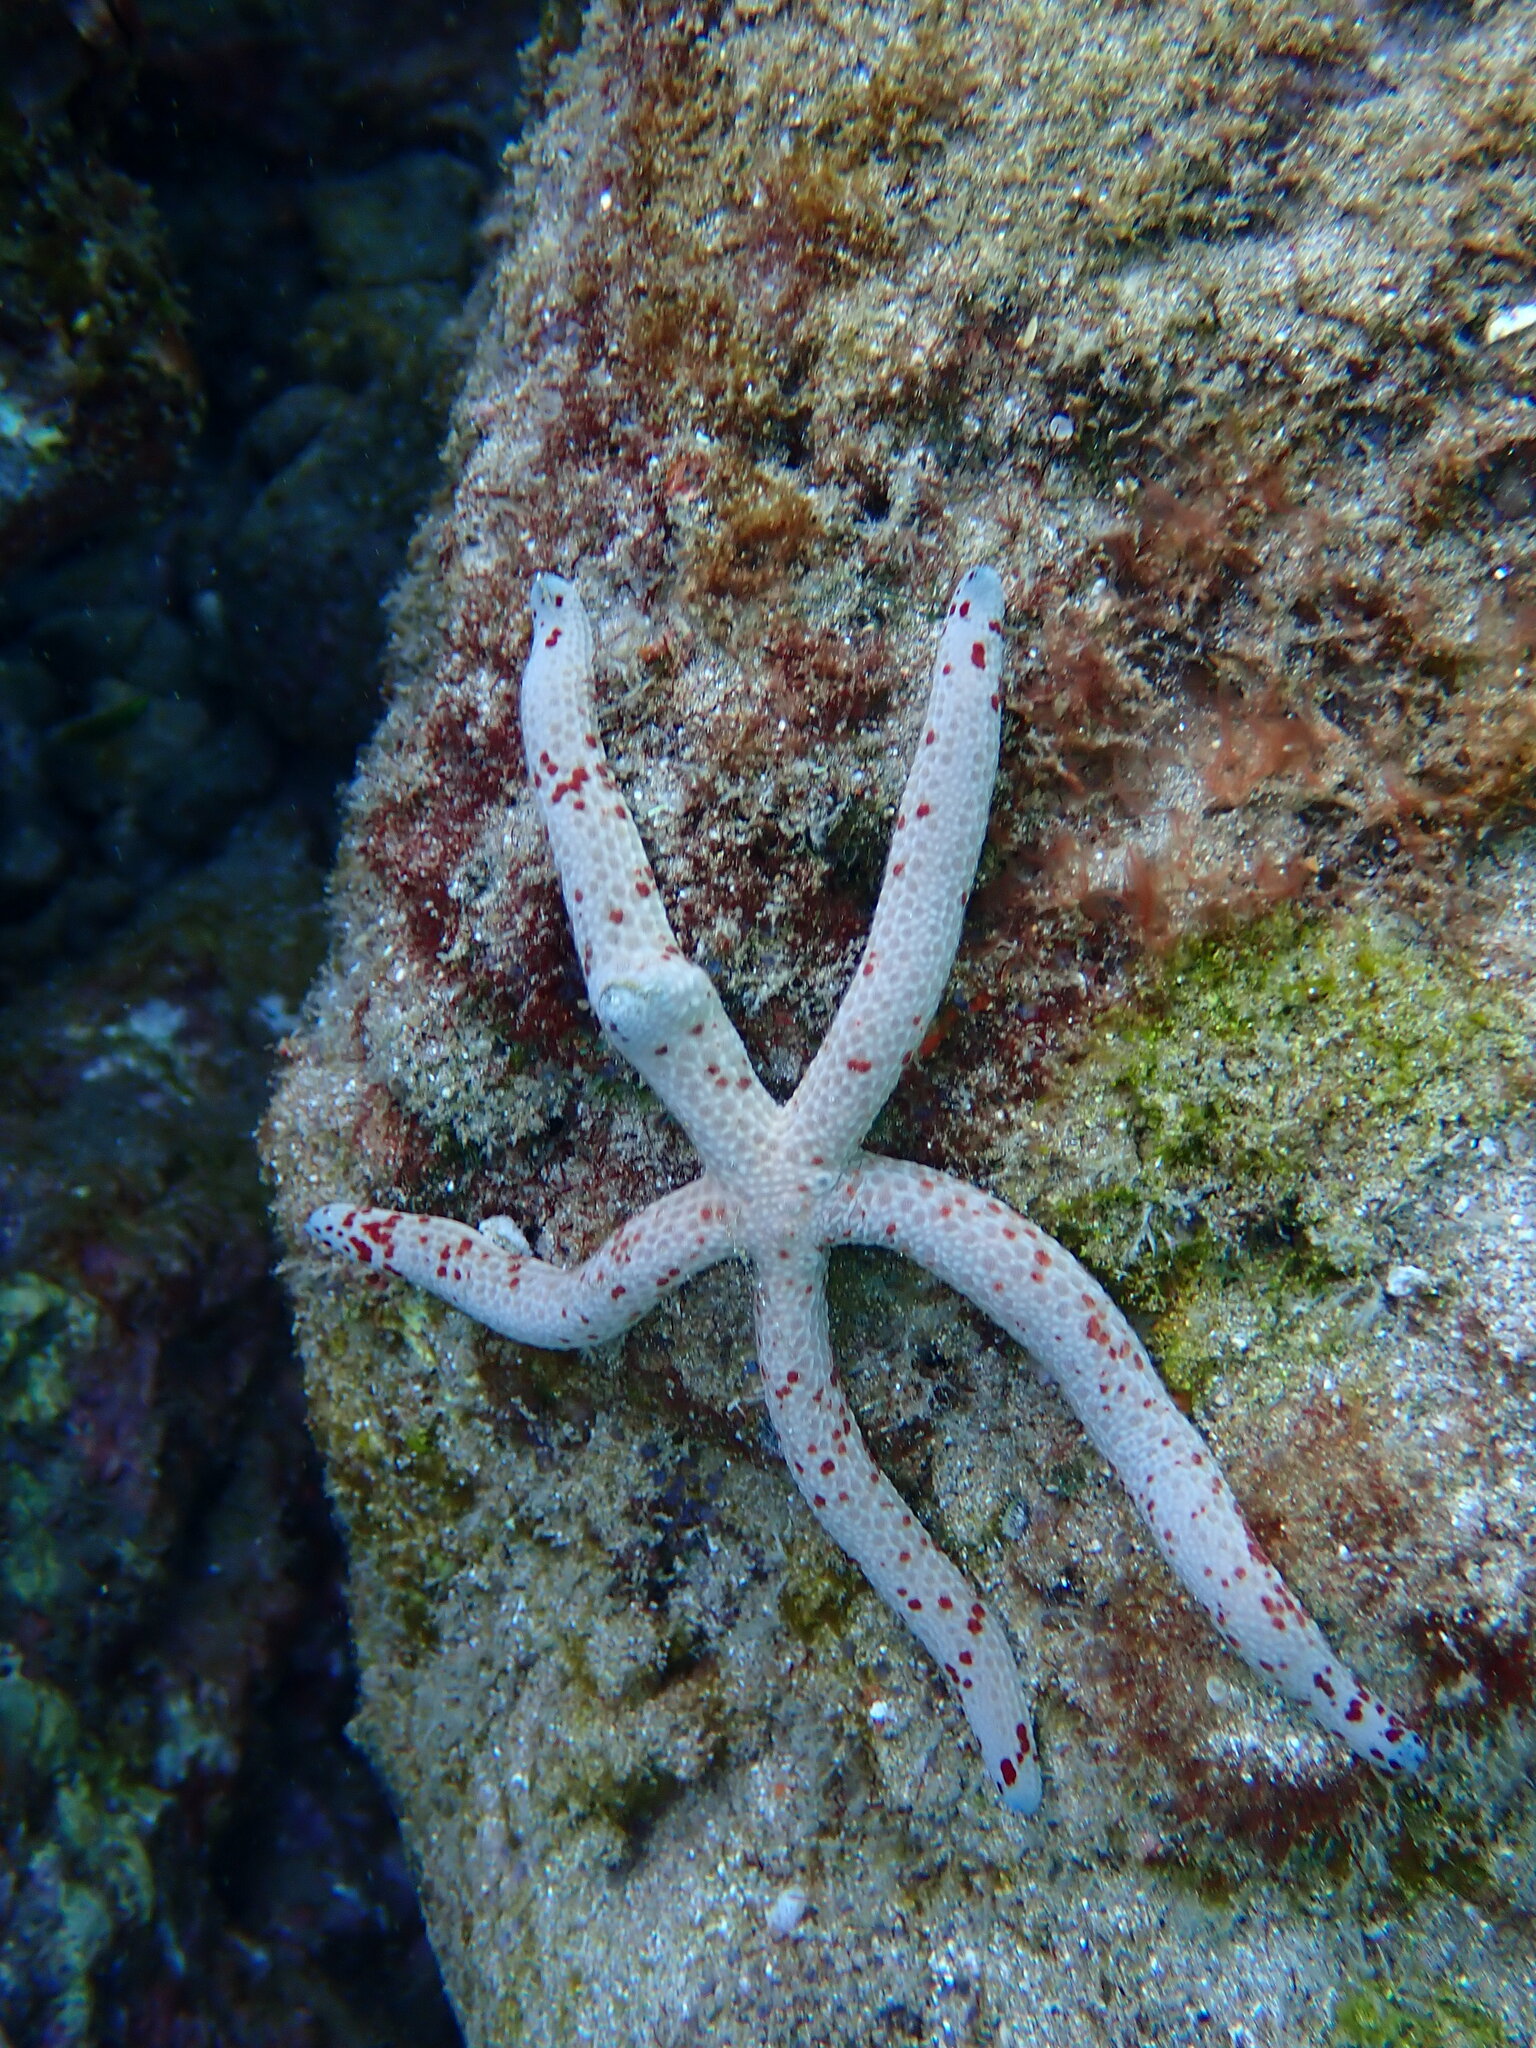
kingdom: Animalia
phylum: Echinodermata
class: Asteroidea
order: Valvatida
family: Ophidiasteridae
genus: Linckia
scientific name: Linckia multifora
